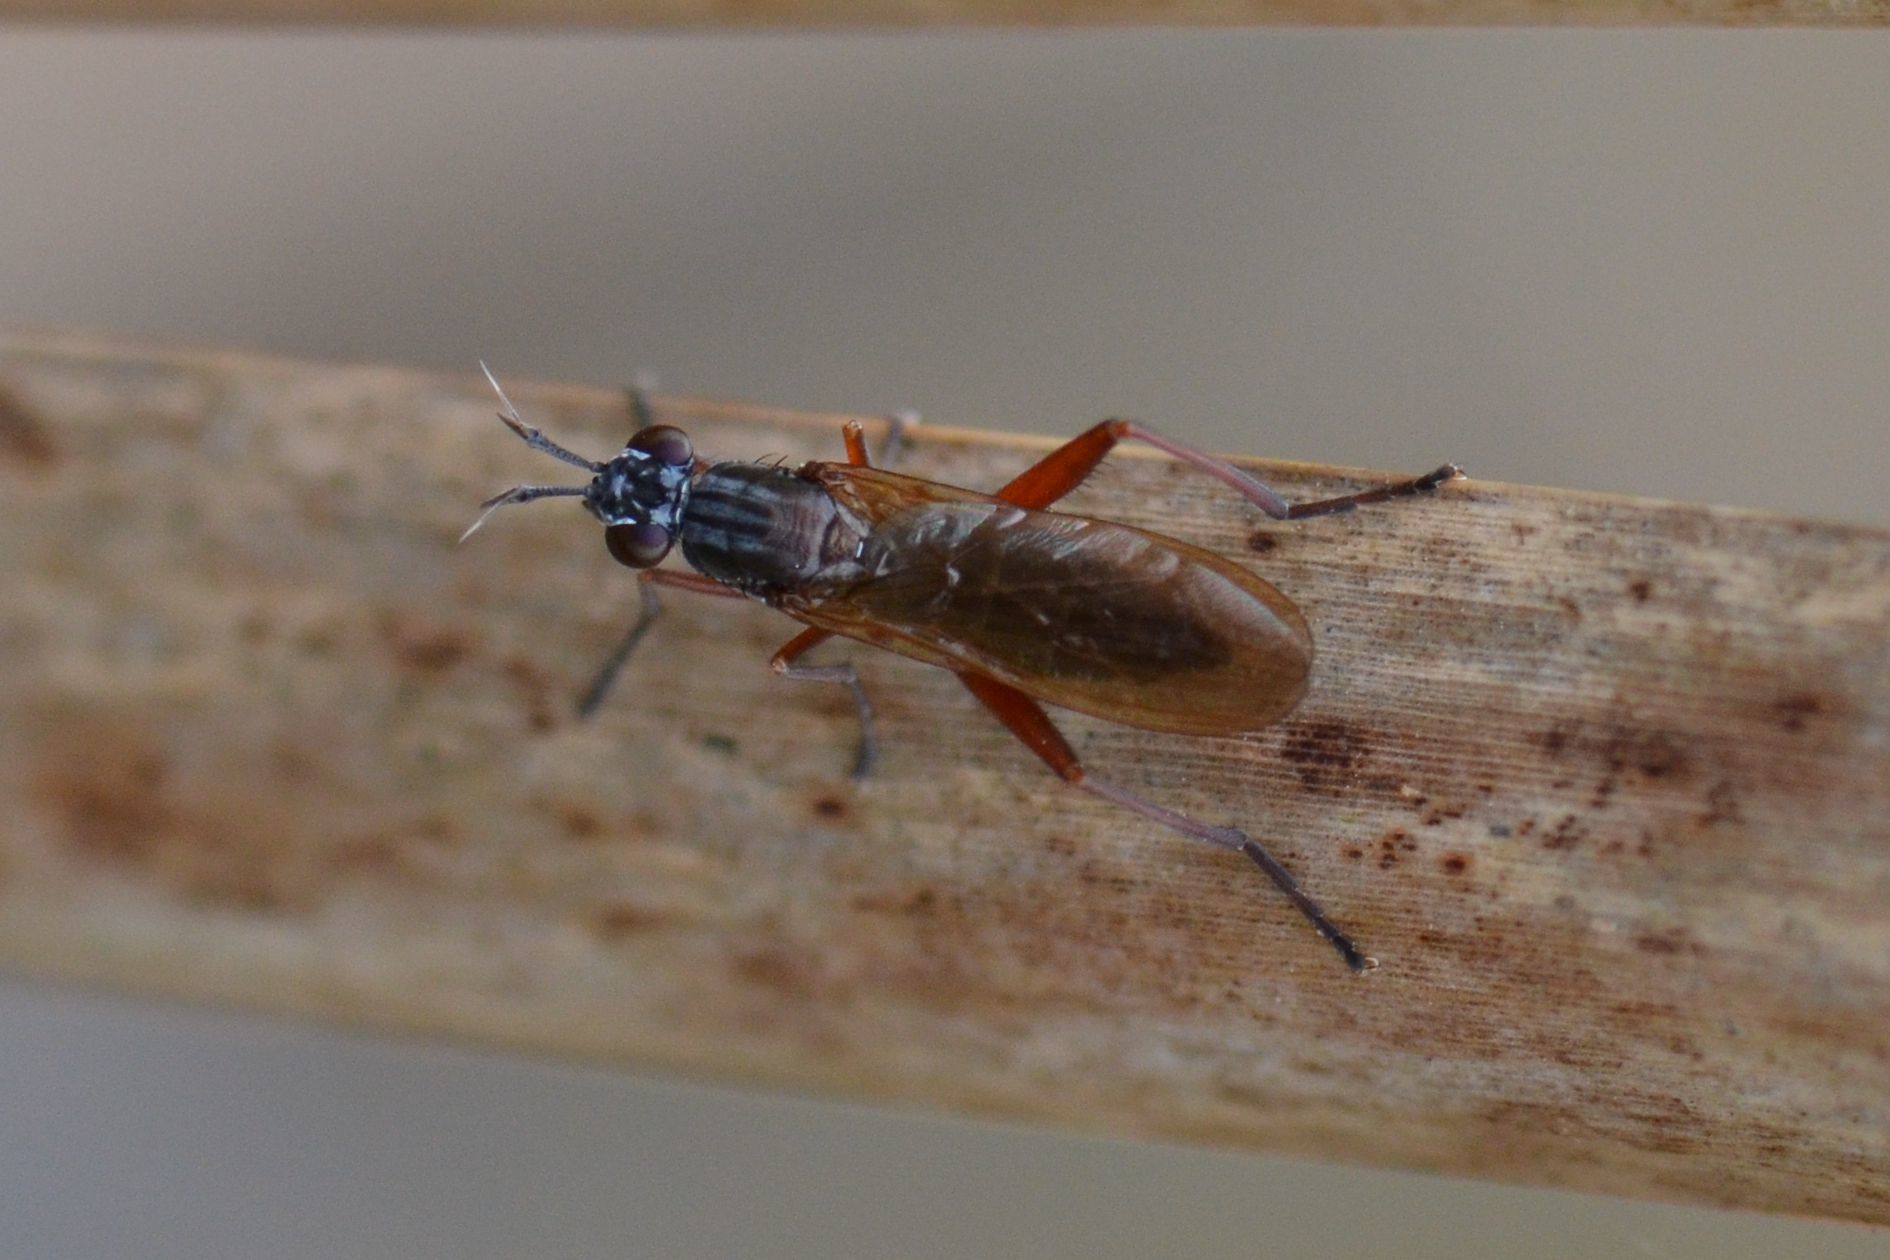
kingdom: Animalia
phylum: Arthropoda
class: Insecta
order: Diptera
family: Sciomyzidae
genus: Sepedon
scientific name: Sepedon sphegea
